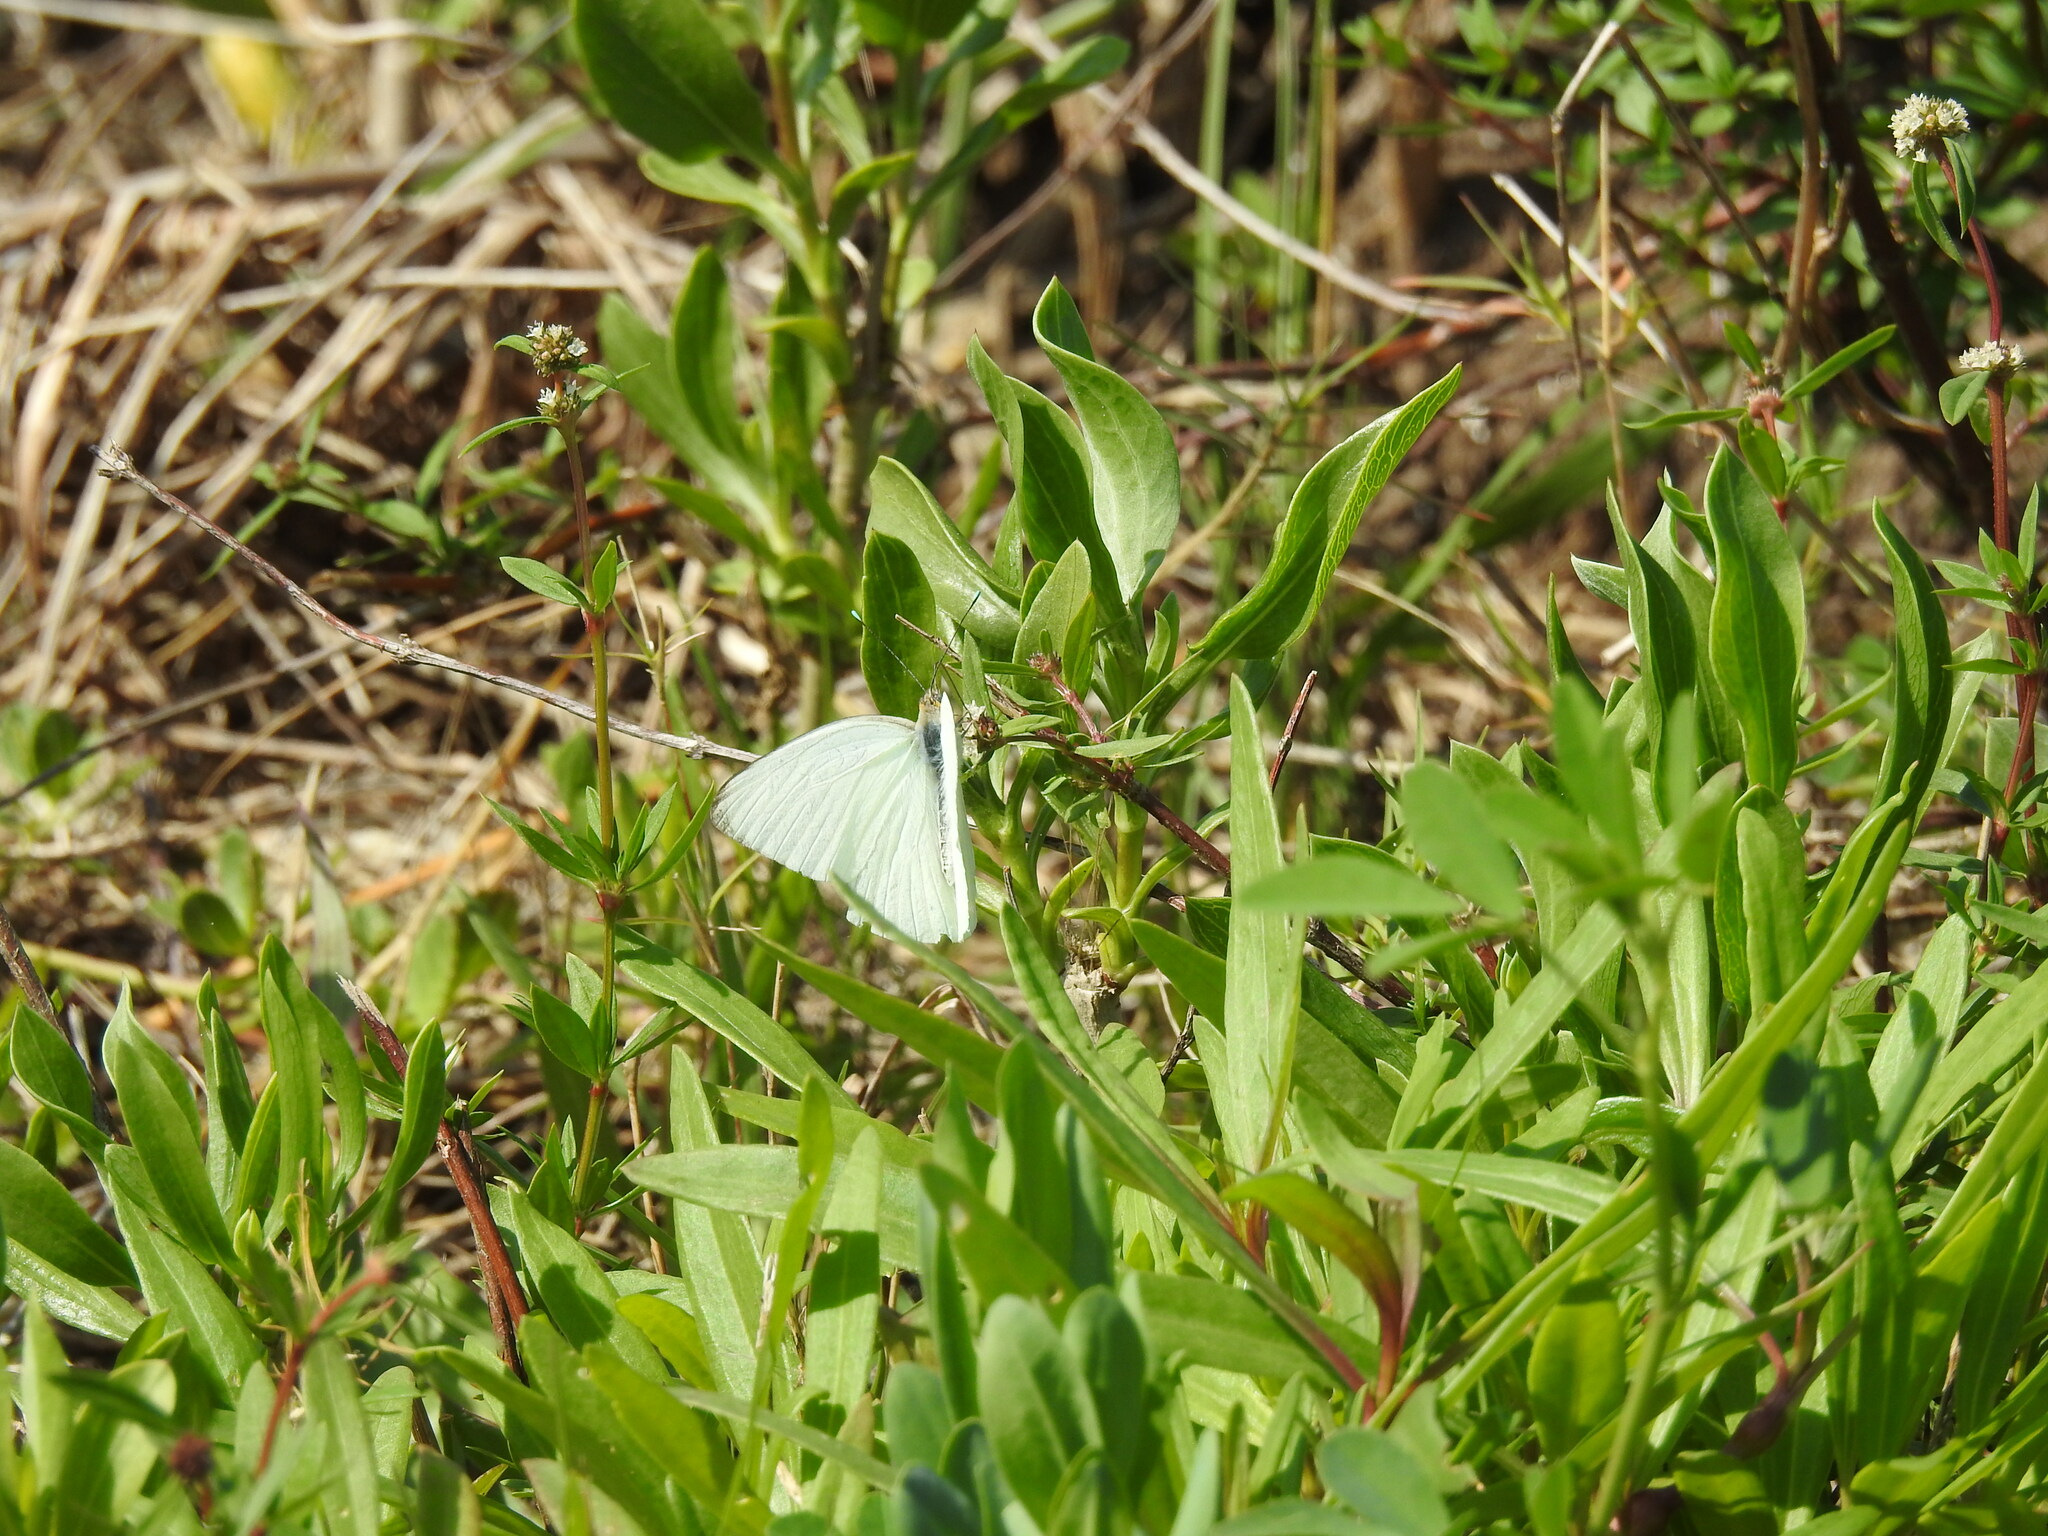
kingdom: Animalia
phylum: Arthropoda
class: Insecta
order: Lepidoptera
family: Pieridae
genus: Ascia
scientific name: Ascia monuste
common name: Great southern white
